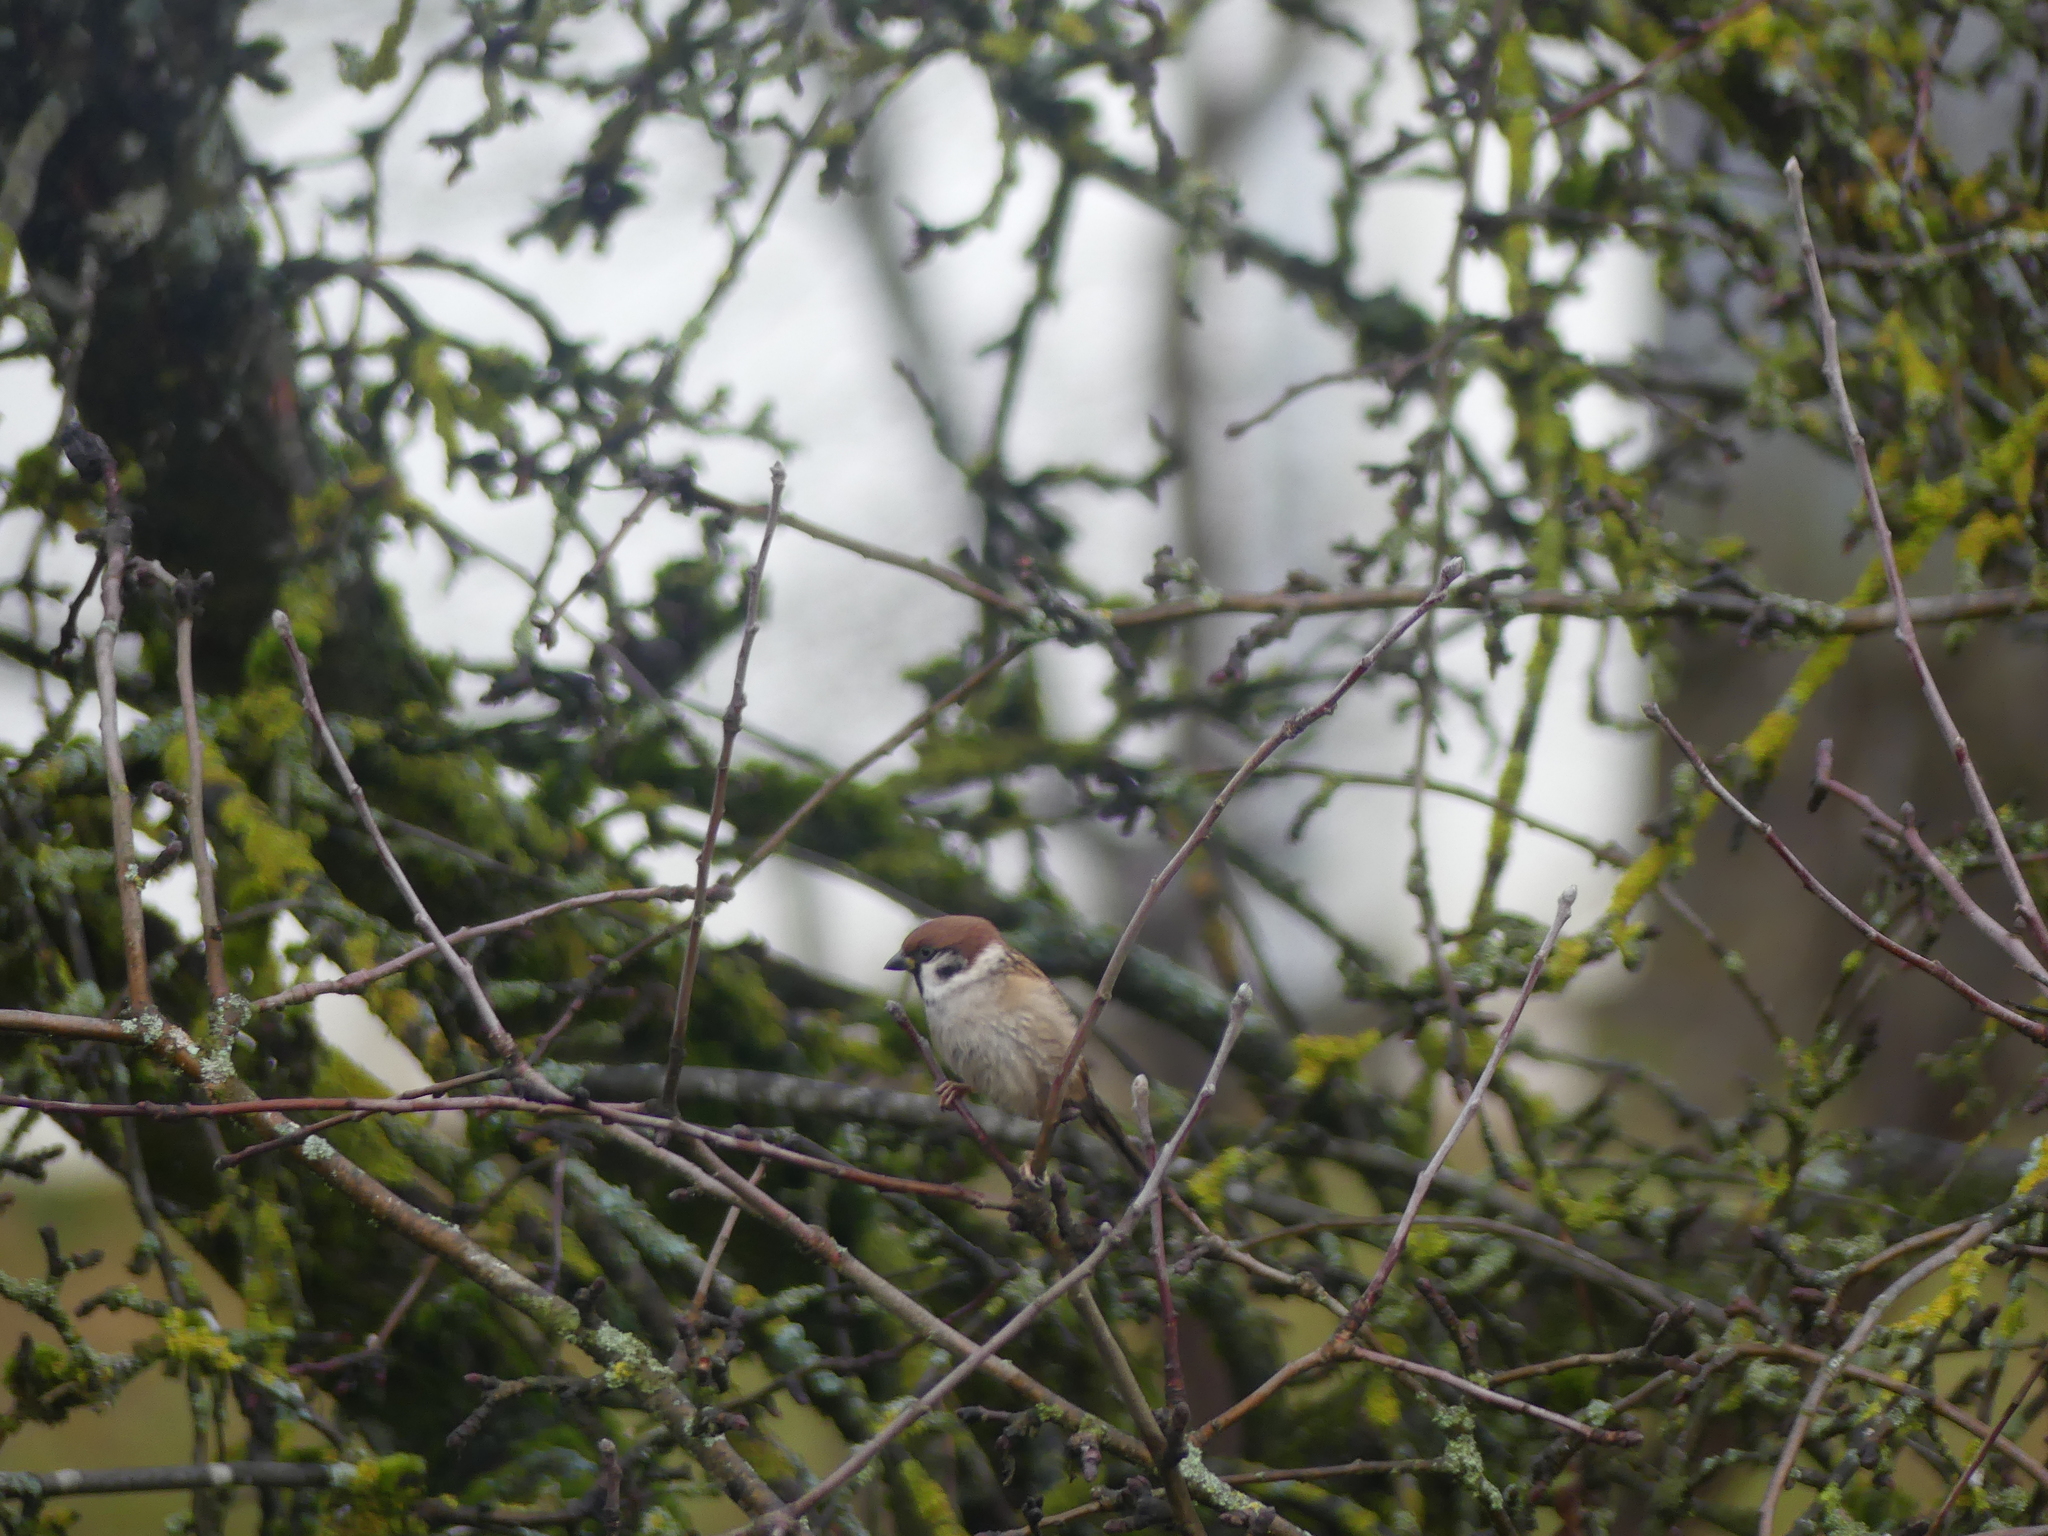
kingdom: Animalia
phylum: Chordata
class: Aves
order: Passeriformes
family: Passeridae
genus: Passer
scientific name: Passer montanus
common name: Eurasian tree sparrow
